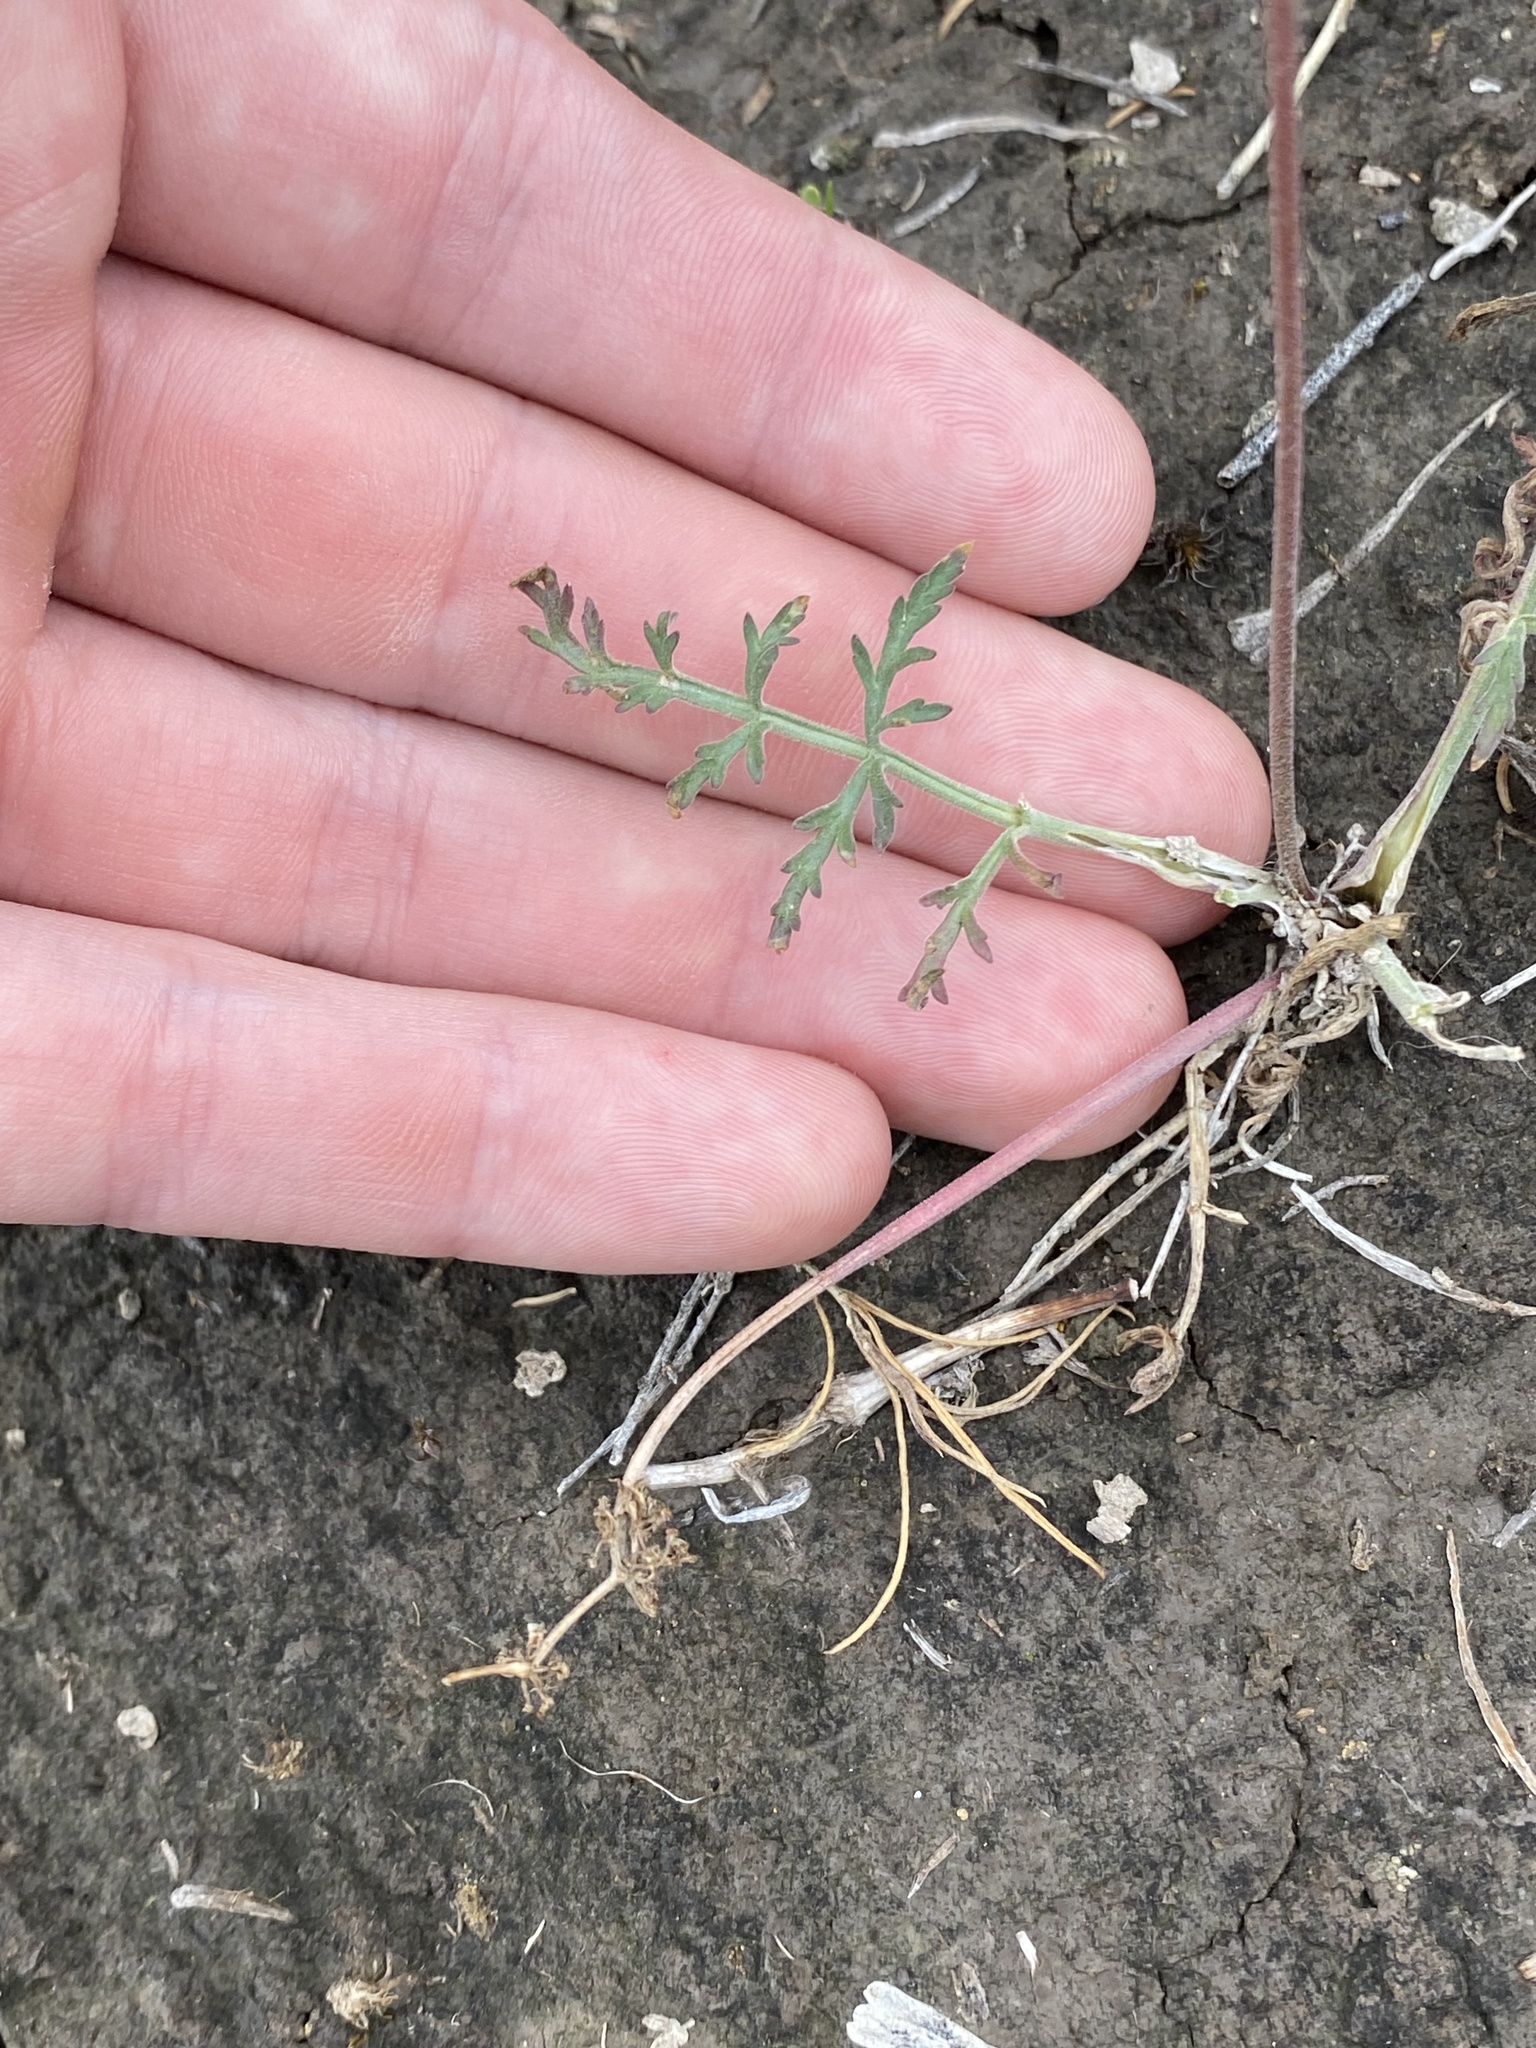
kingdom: Plantae
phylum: Tracheophyta
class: Magnoliopsida
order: Apiales
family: Apiaceae
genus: Lomatium
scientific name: Lomatium nevadense
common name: Nevada lomatium
